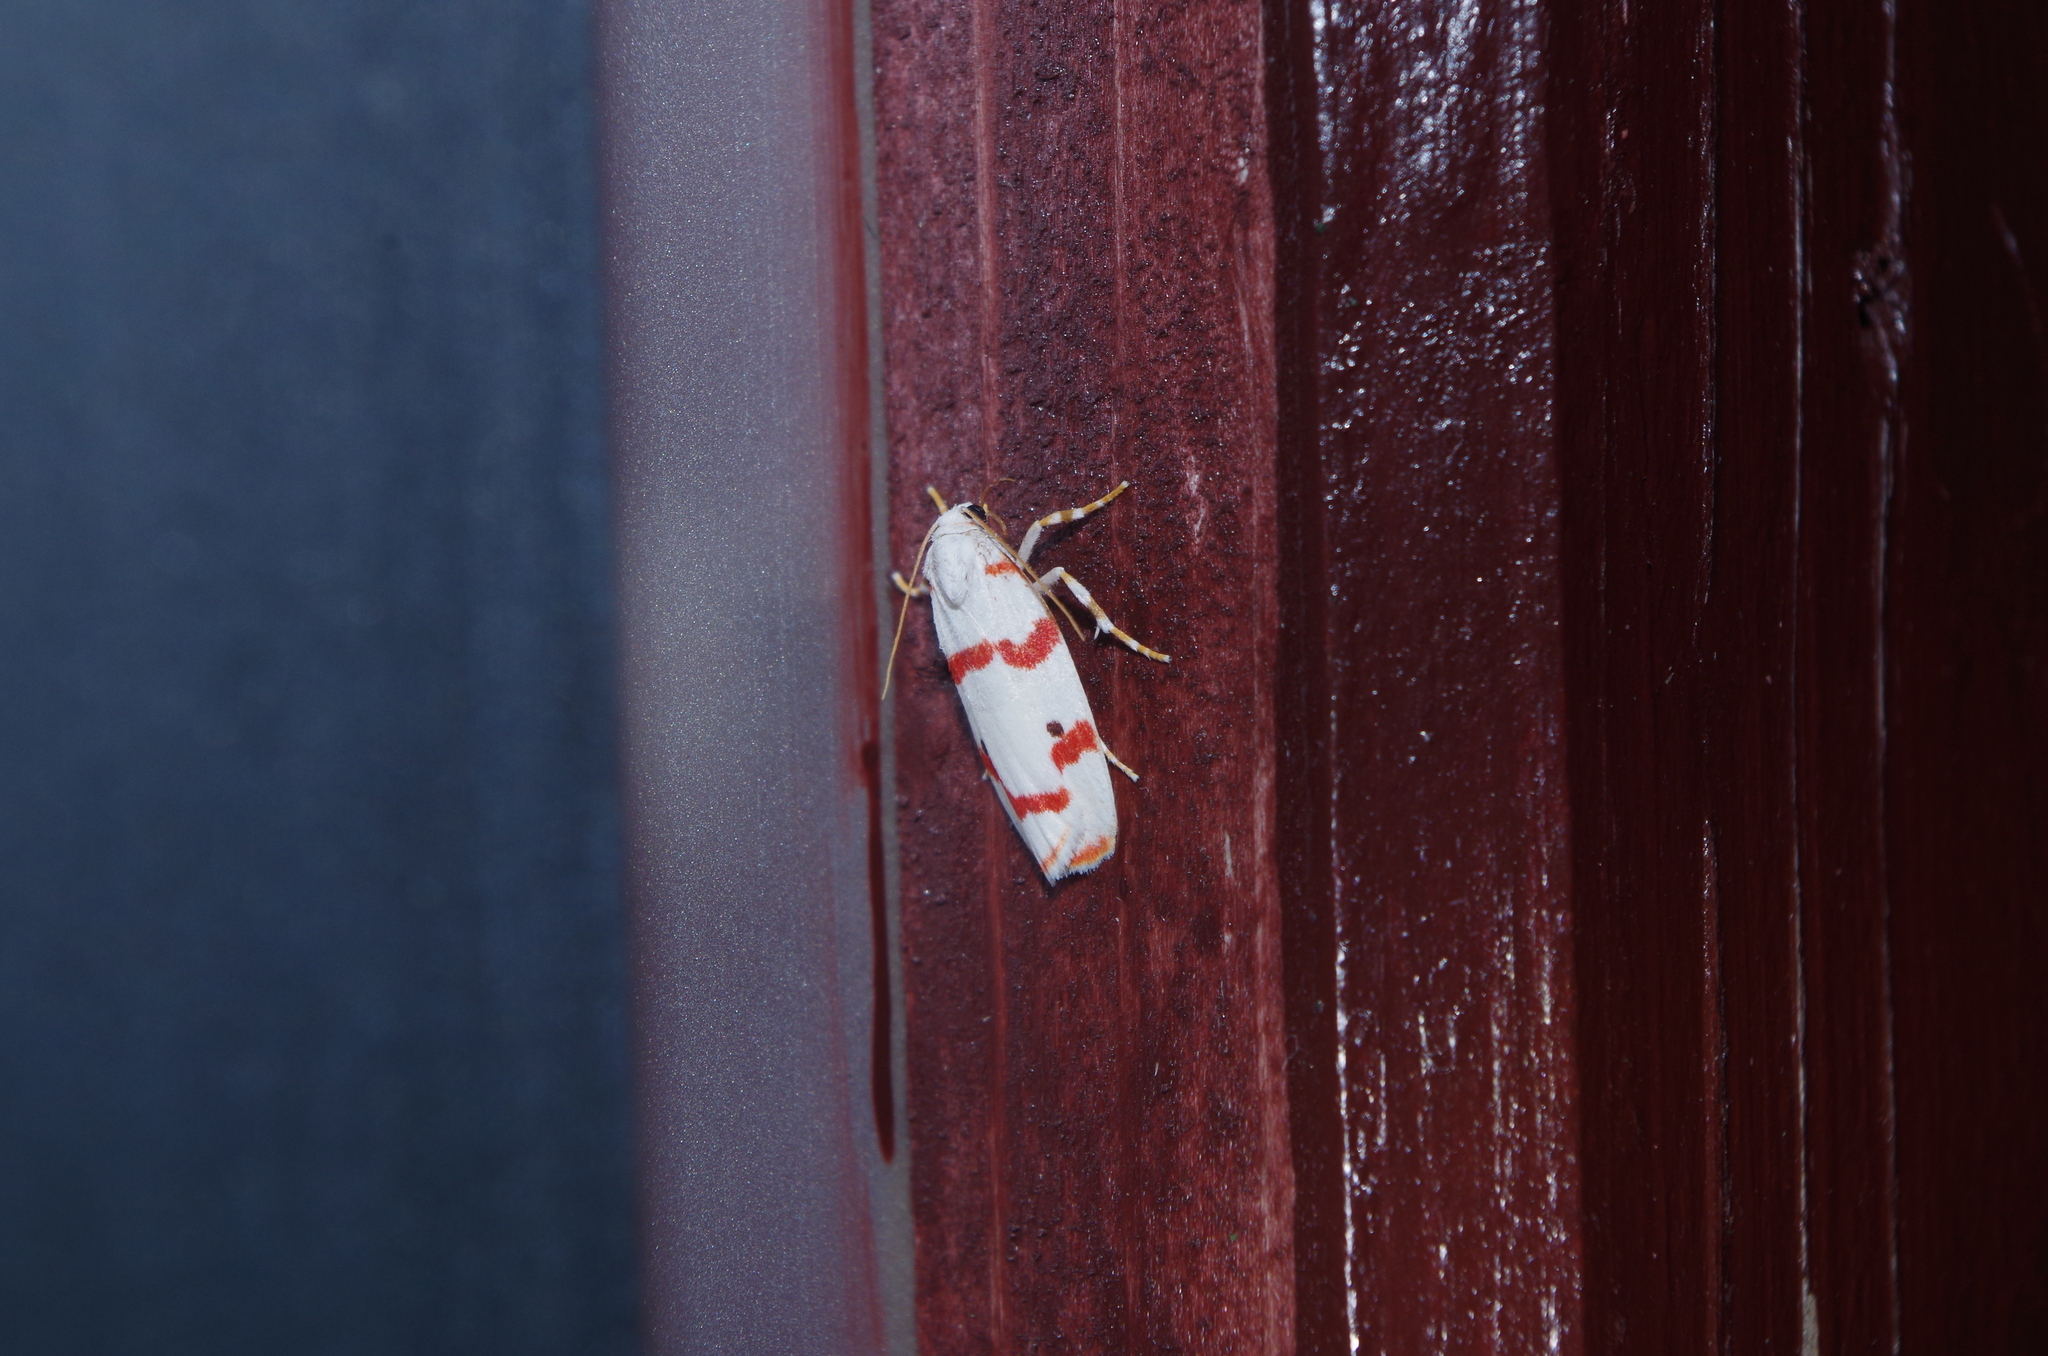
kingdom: Animalia
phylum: Arthropoda
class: Insecta
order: Lepidoptera
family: Erebidae
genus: Cyana
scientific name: Cyana unipuncta
